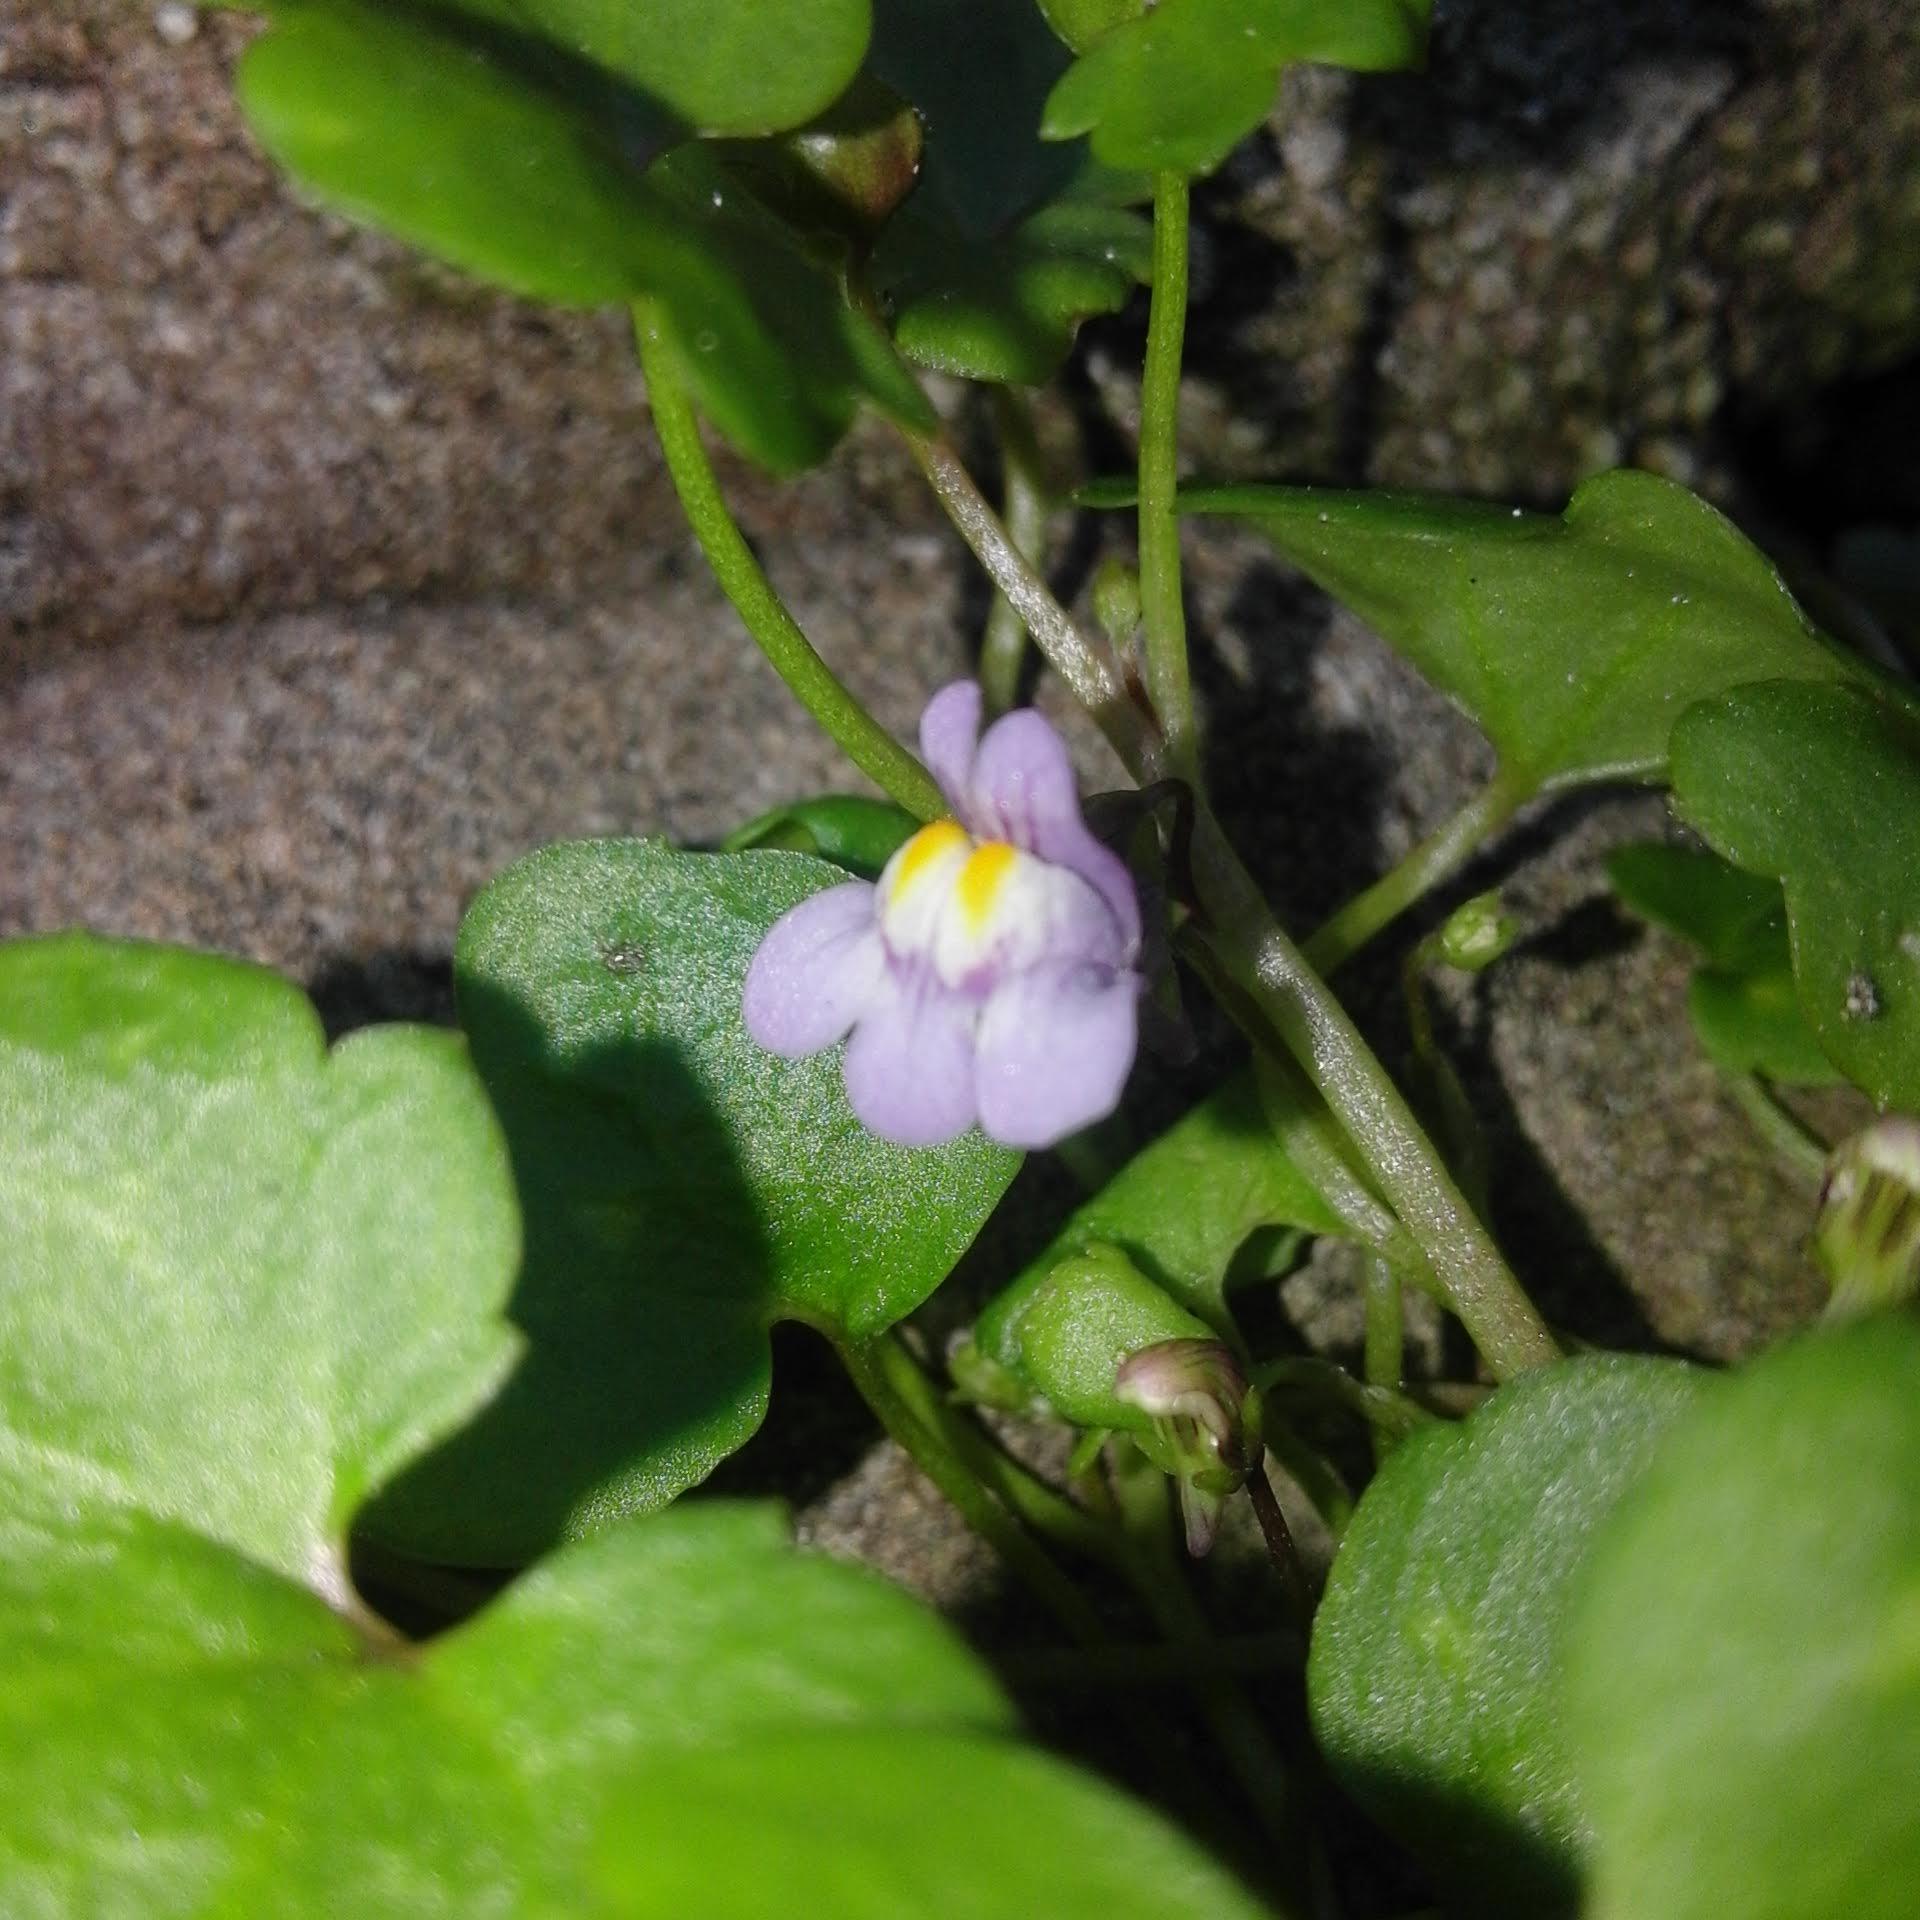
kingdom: Plantae
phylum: Tracheophyta
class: Magnoliopsida
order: Lamiales
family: Plantaginaceae
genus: Cymbalaria
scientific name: Cymbalaria muralis
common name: Ivy-leaved toadflax
